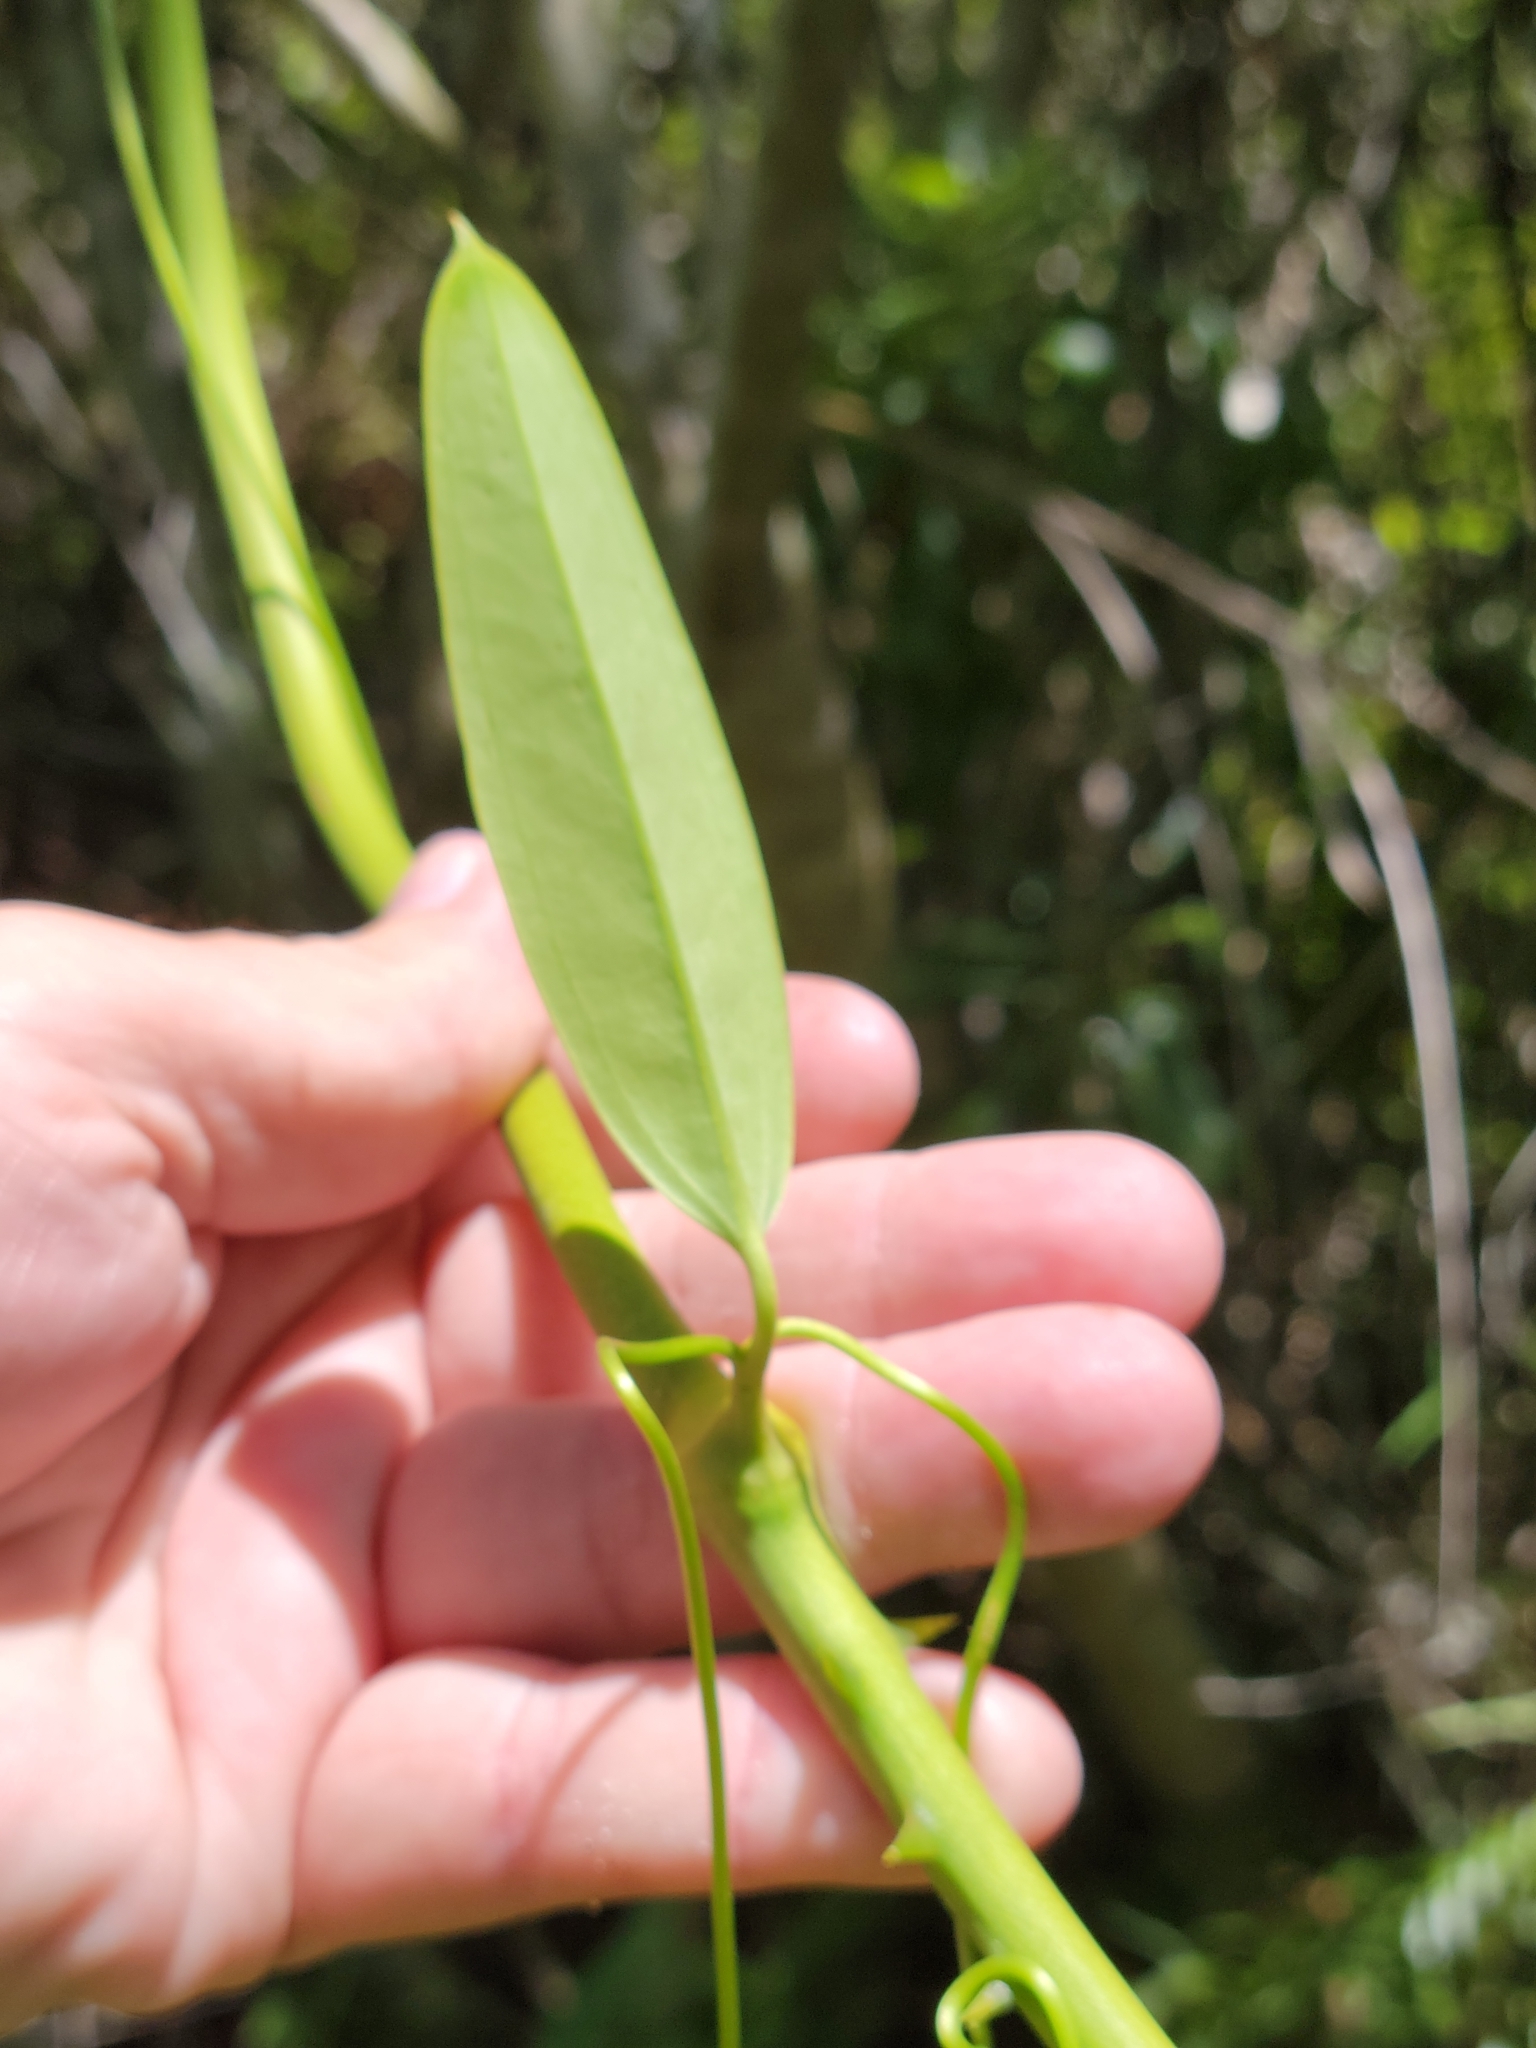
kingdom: Plantae
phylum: Tracheophyta
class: Liliopsida
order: Liliales
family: Smilacaceae
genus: Smilax
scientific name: Smilax laurifolia
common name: Bamboovine
